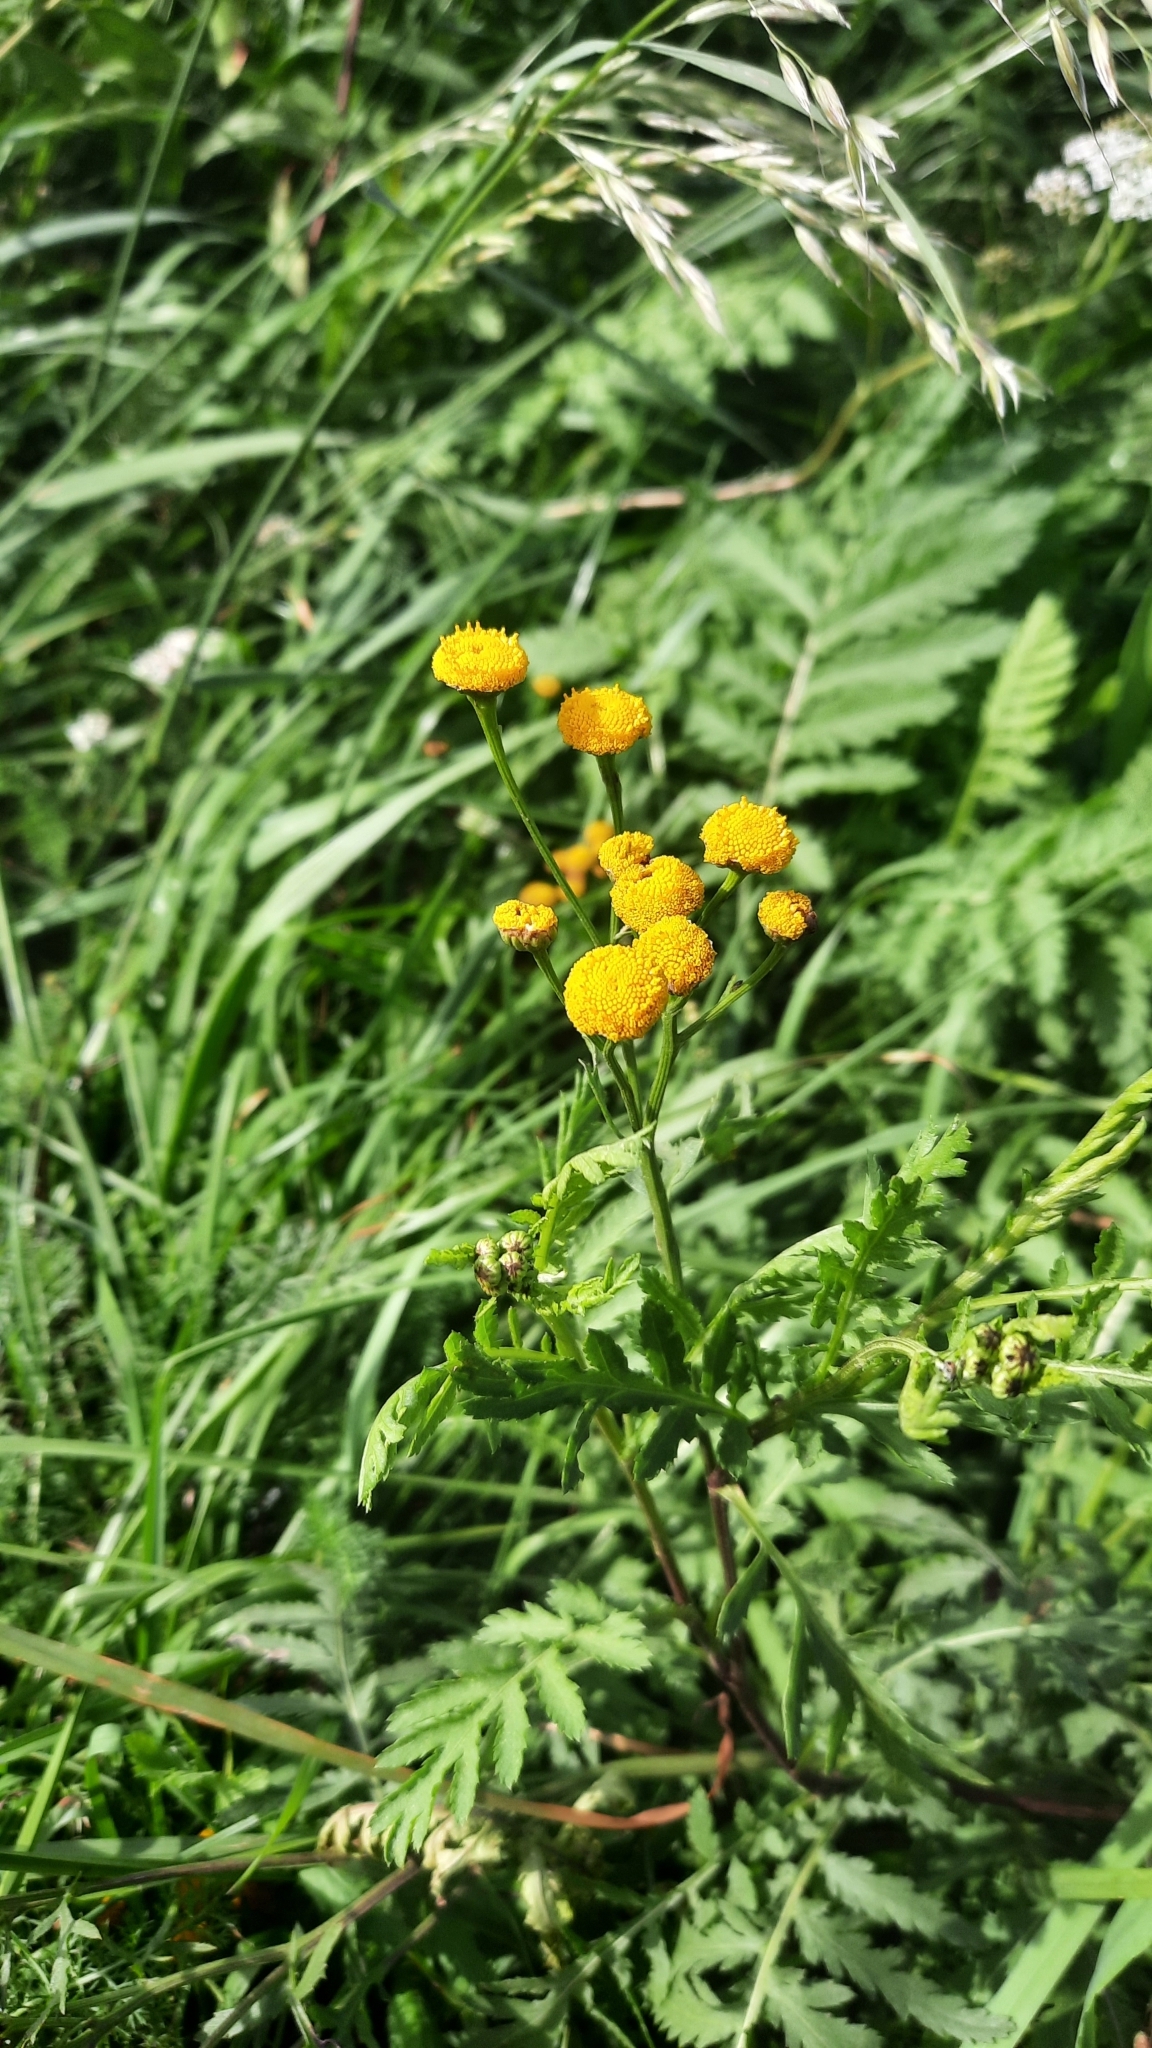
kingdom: Plantae
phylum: Tracheophyta
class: Magnoliopsida
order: Asterales
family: Asteraceae
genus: Tanacetum
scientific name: Tanacetum vulgare
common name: Common tansy
